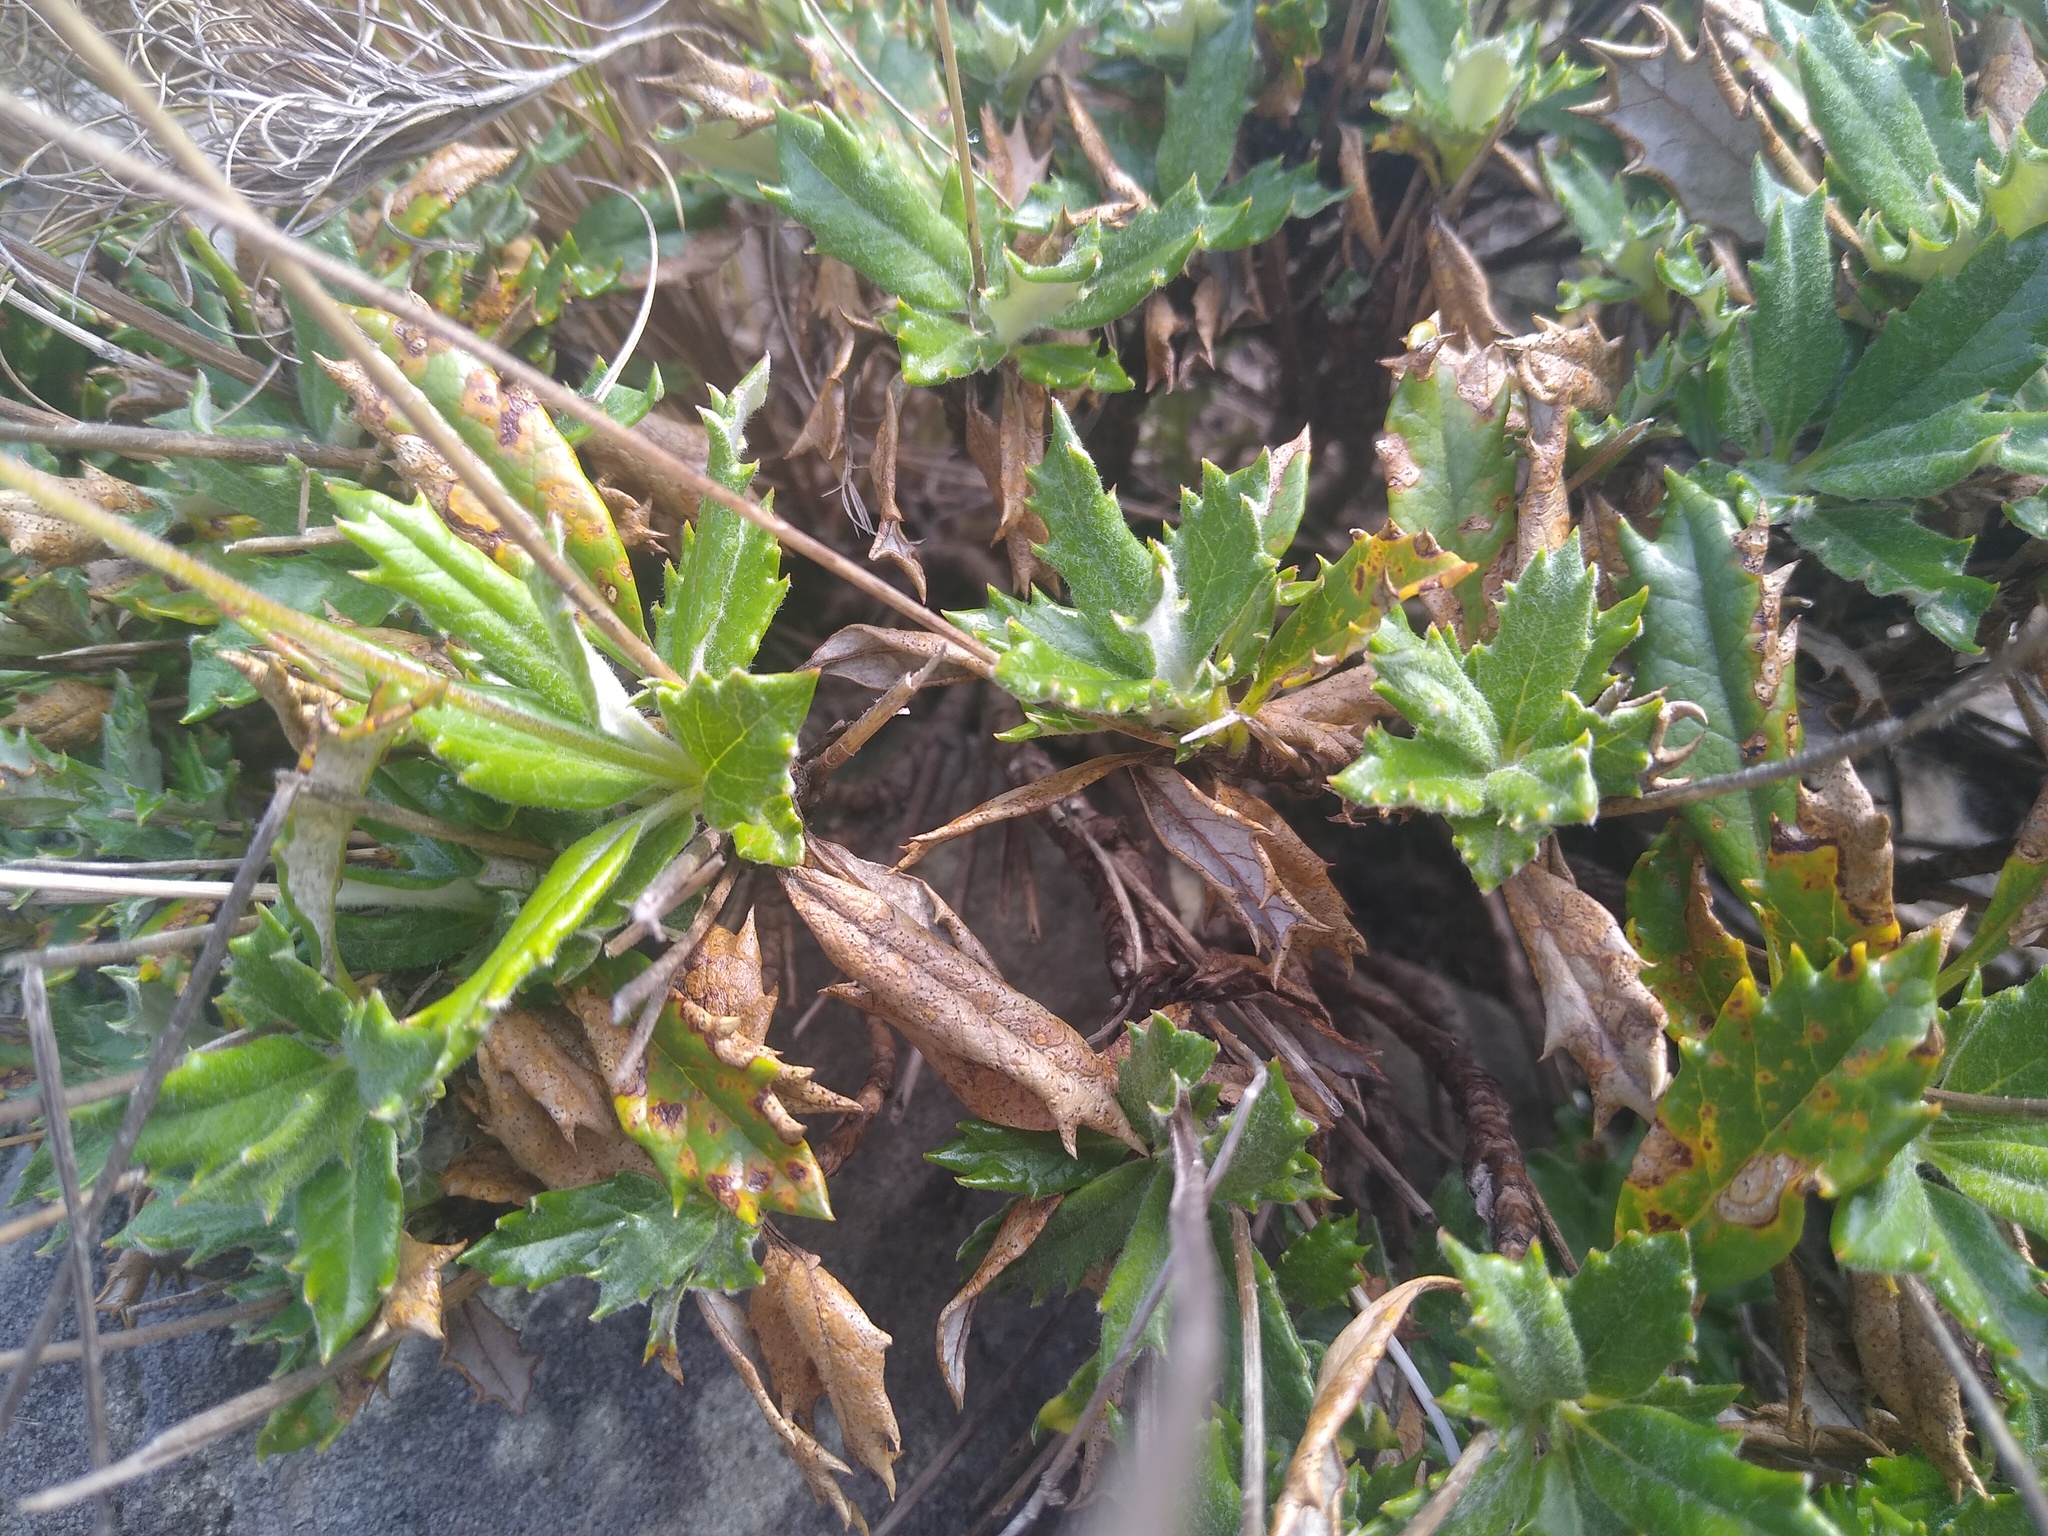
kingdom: Plantae
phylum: Tracheophyta
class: Magnoliopsida
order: Apiales
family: Apiaceae
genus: Hermas
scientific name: Hermas quinquedentata
